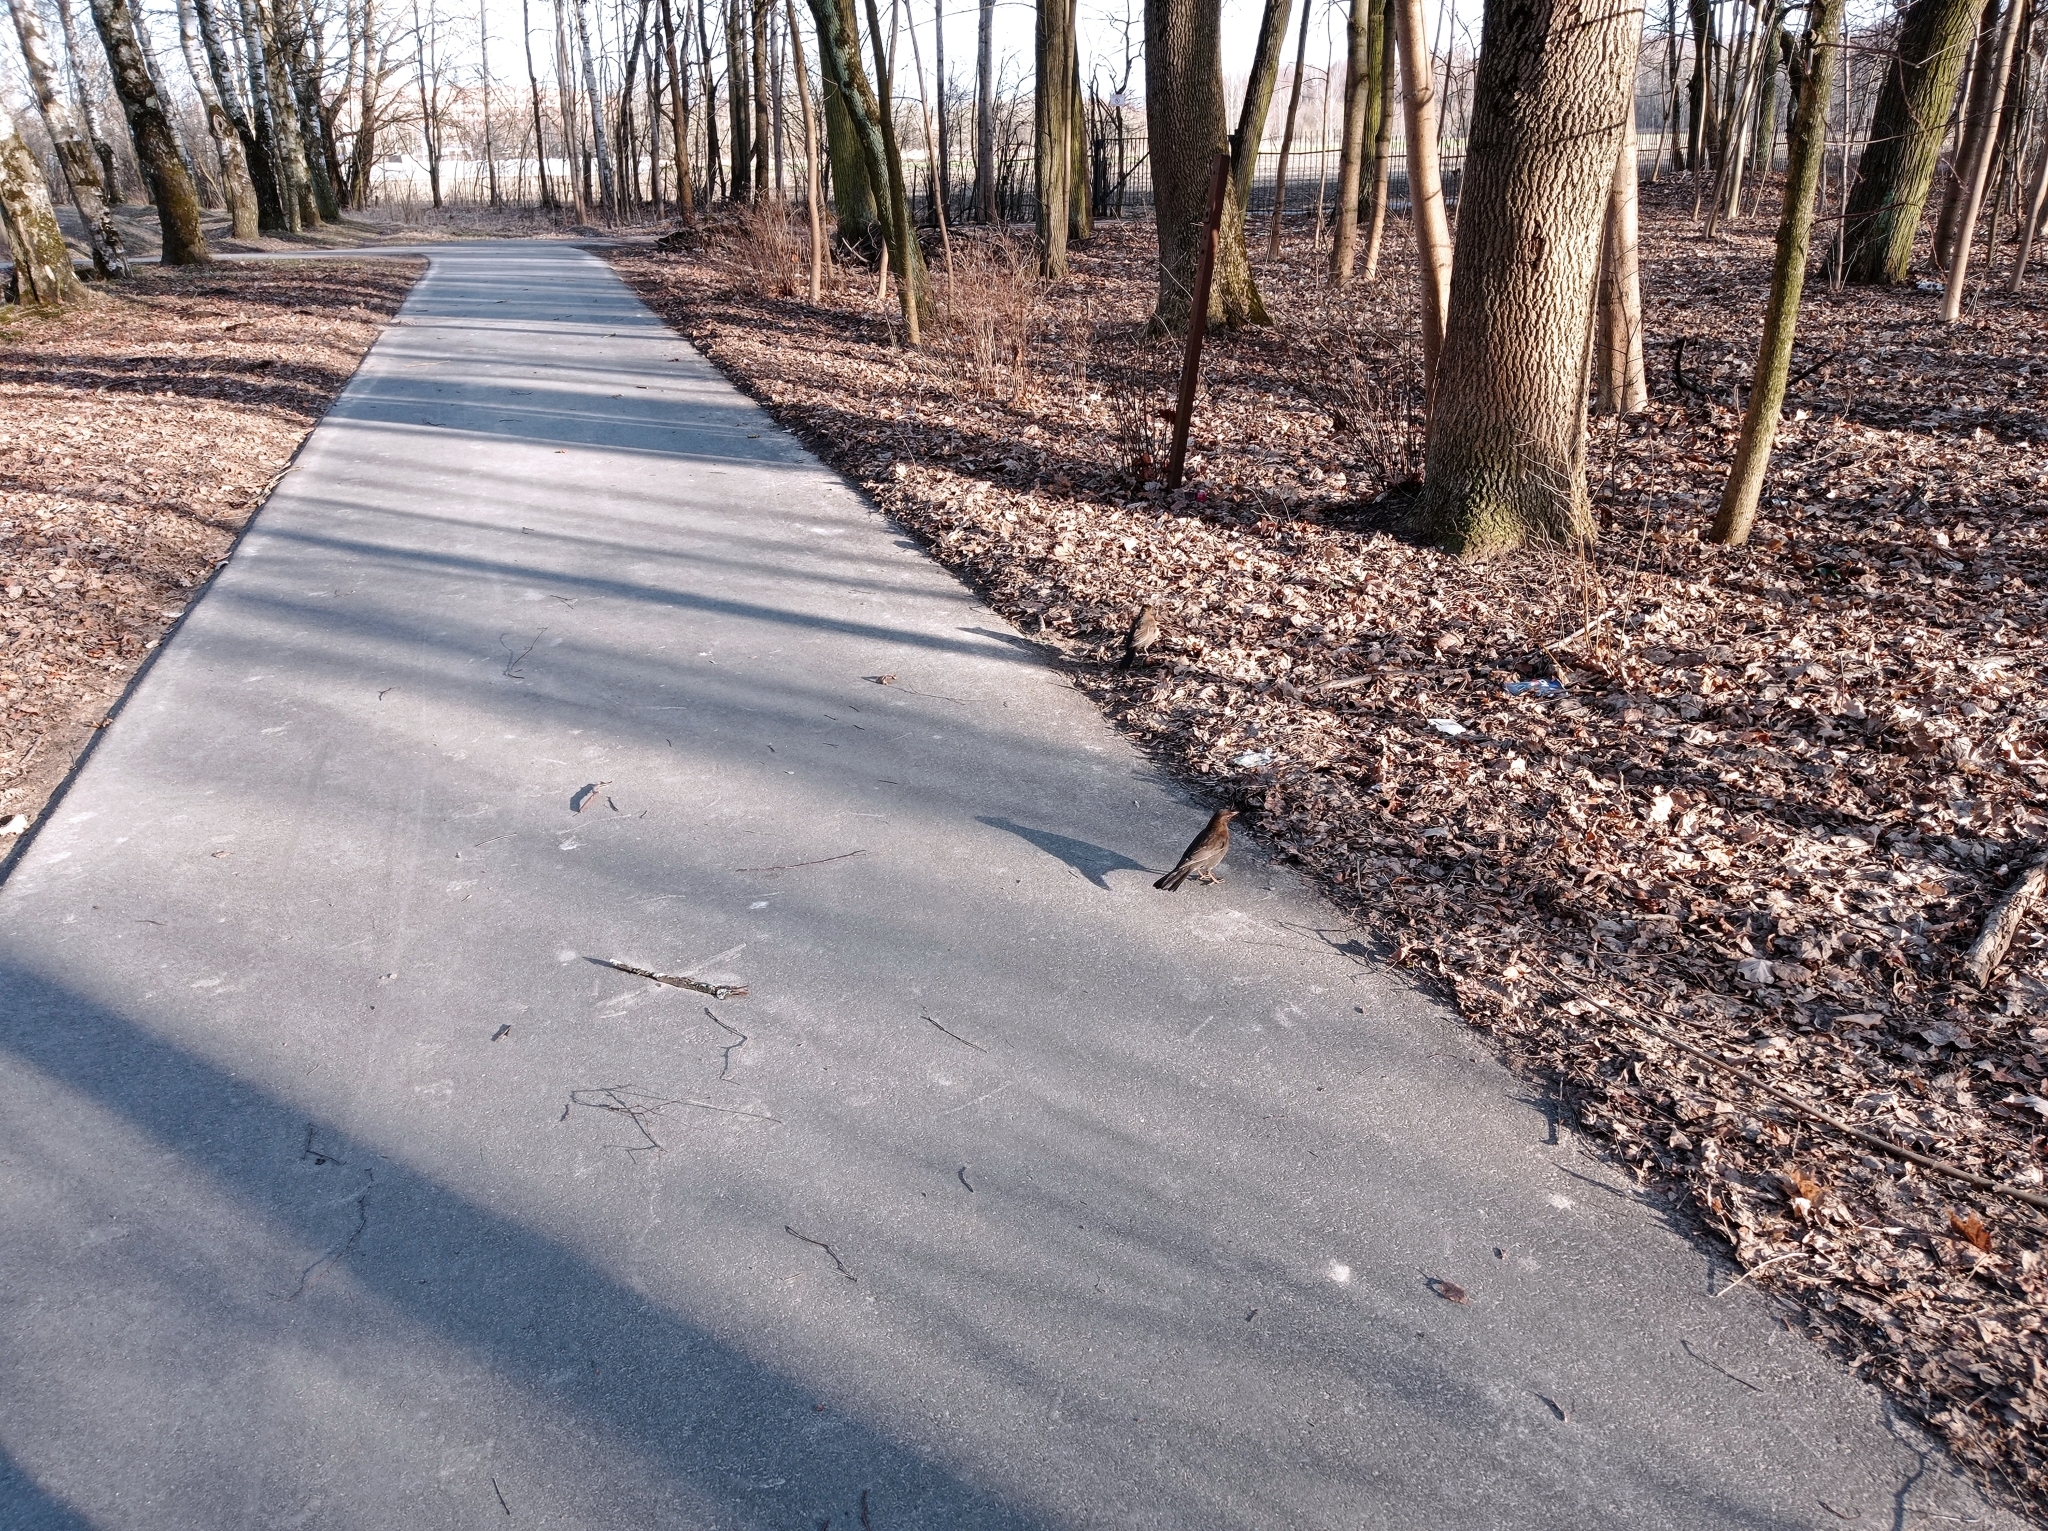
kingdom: Animalia
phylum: Chordata
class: Aves
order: Passeriformes
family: Turdidae
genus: Turdus
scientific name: Turdus merula
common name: Common blackbird
